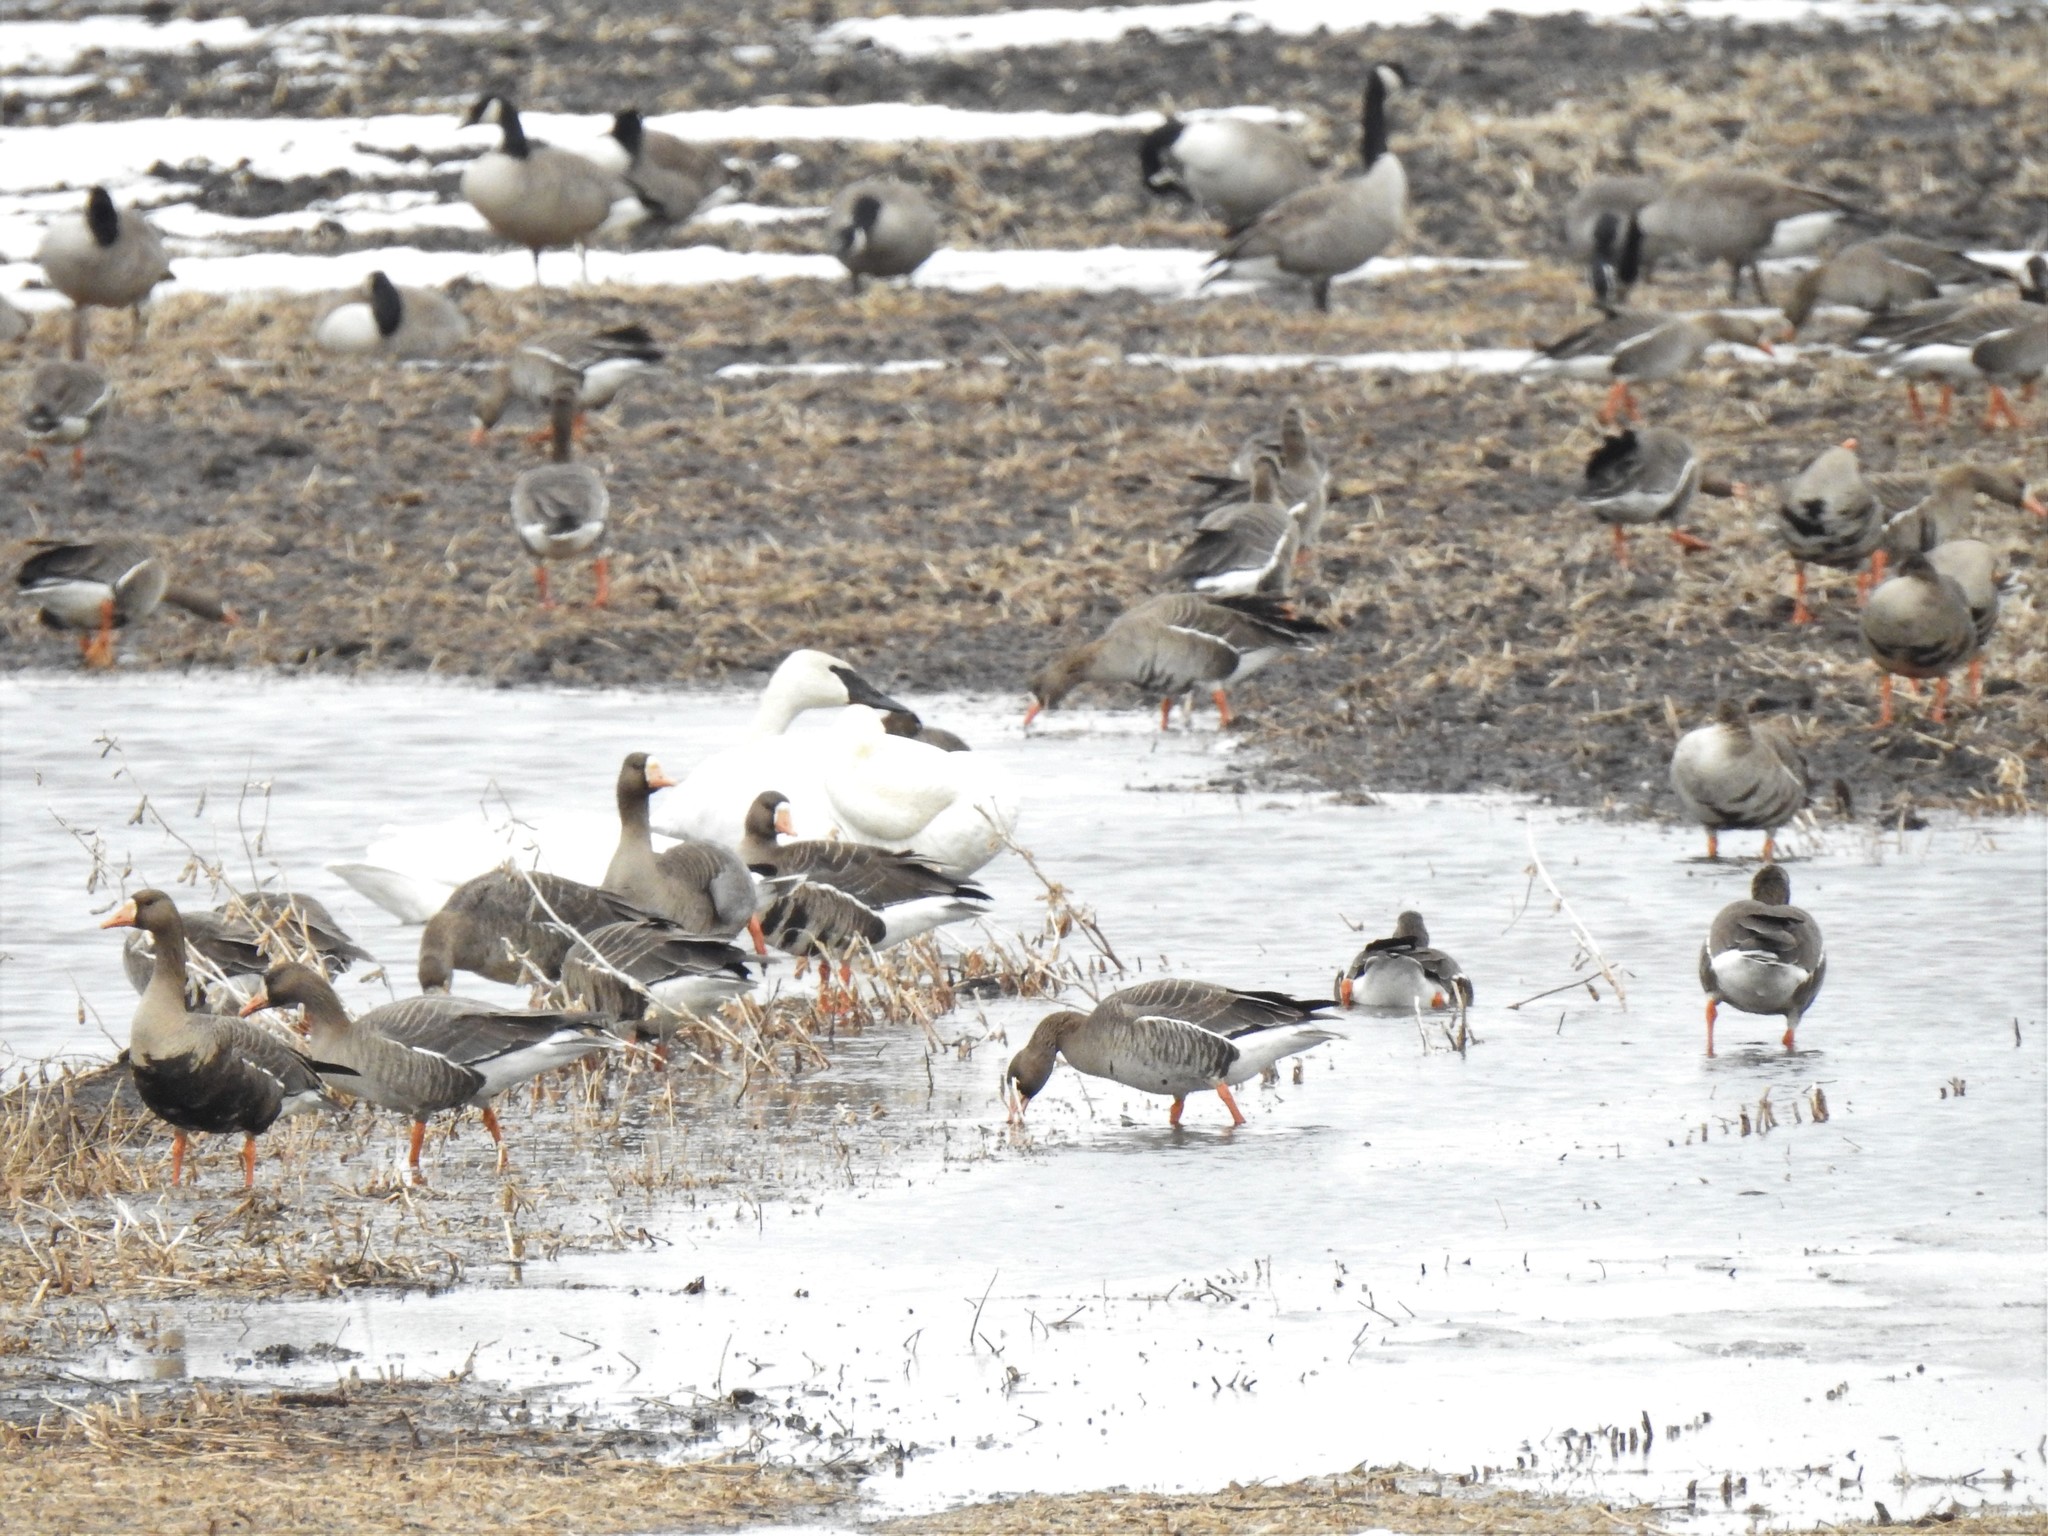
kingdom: Animalia
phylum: Chordata
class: Aves
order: Anseriformes
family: Anatidae
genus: Anser
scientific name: Anser albifrons
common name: Greater white-fronted goose
